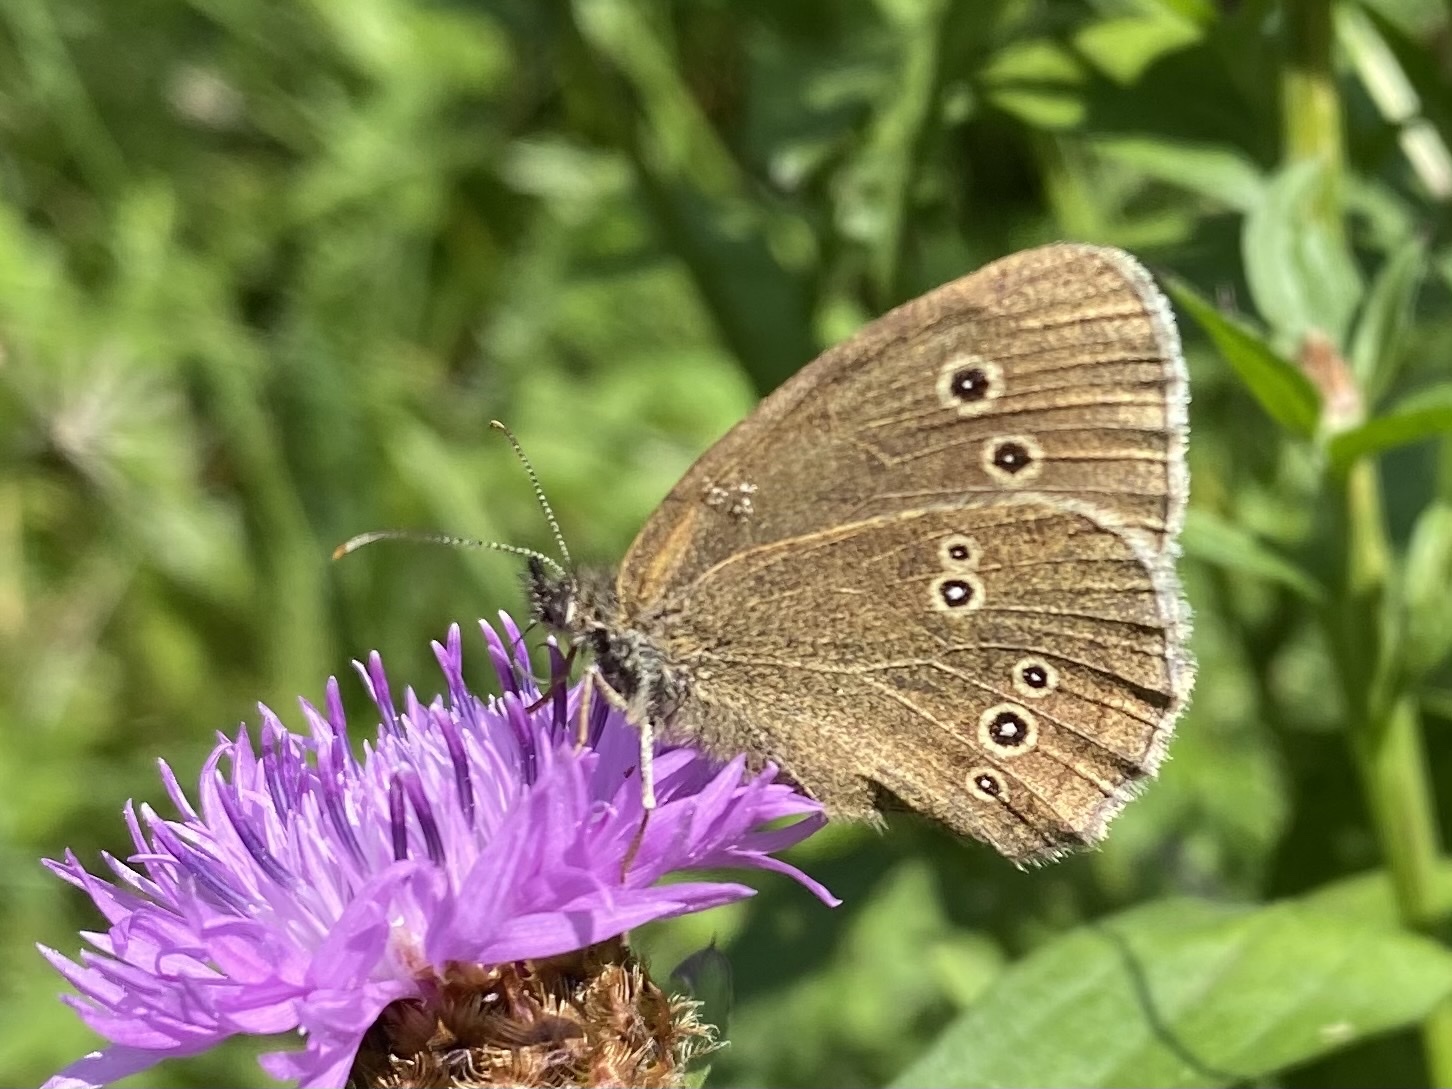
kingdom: Animalia
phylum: Arthropoda
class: Insecta
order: Lepidoptera
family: Nymphalidae
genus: Aphantopus
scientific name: Aphantopus hyperantus
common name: Ringlet
